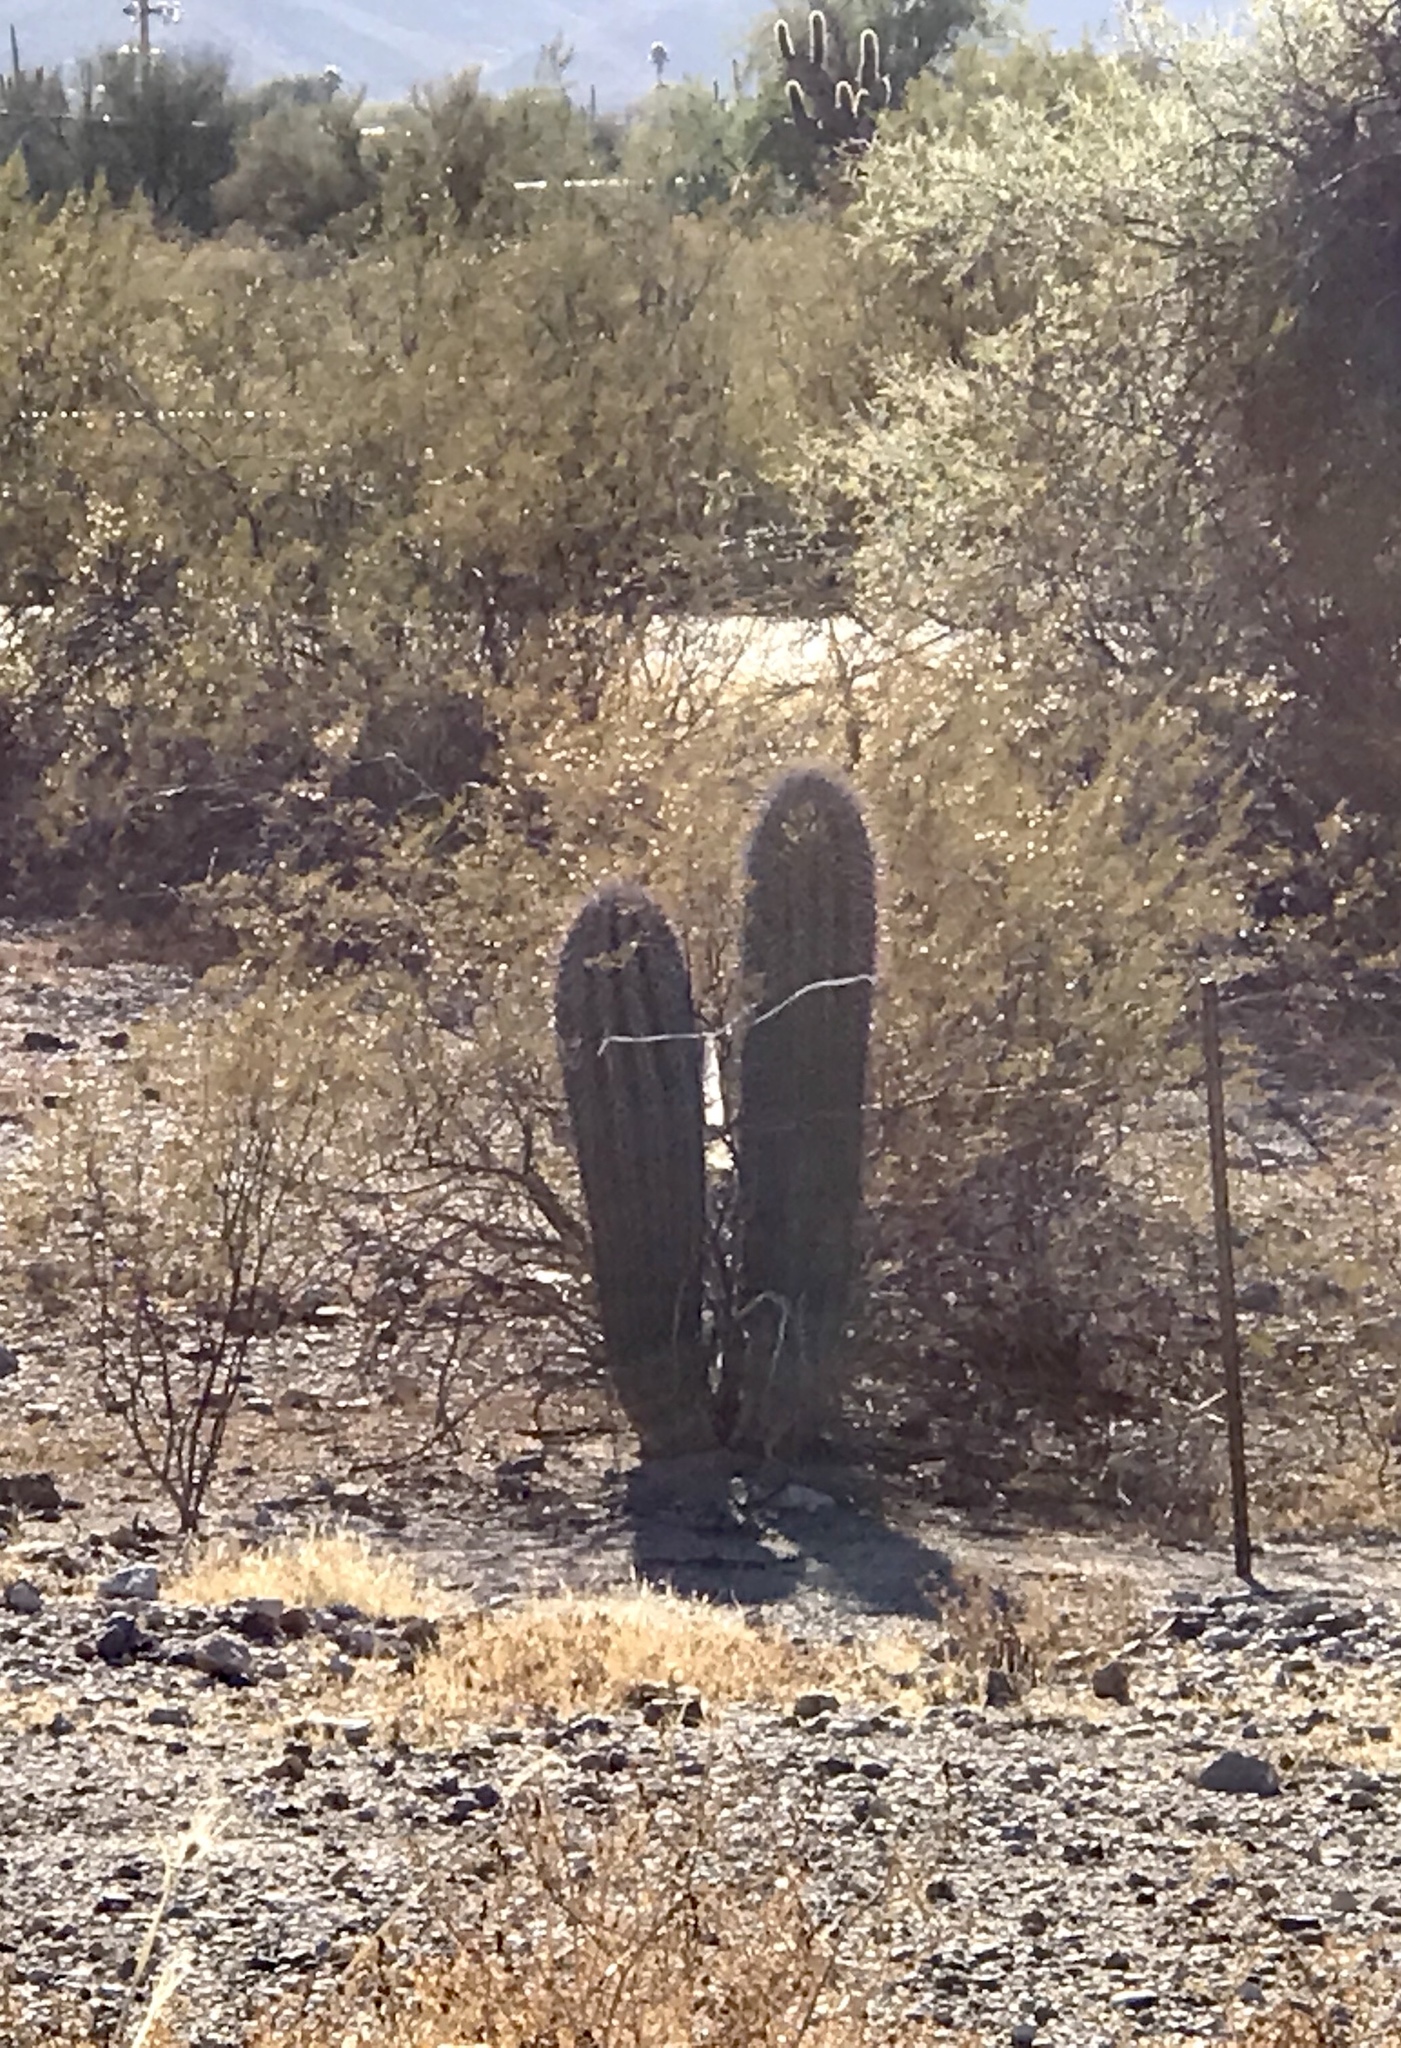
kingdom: Plantae
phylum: Tracheophyta
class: Magnoliopsida
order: Caryophyllales
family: Cactaceae
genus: Carnegiea
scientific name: Carnegiea gigantea
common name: Saguaro
